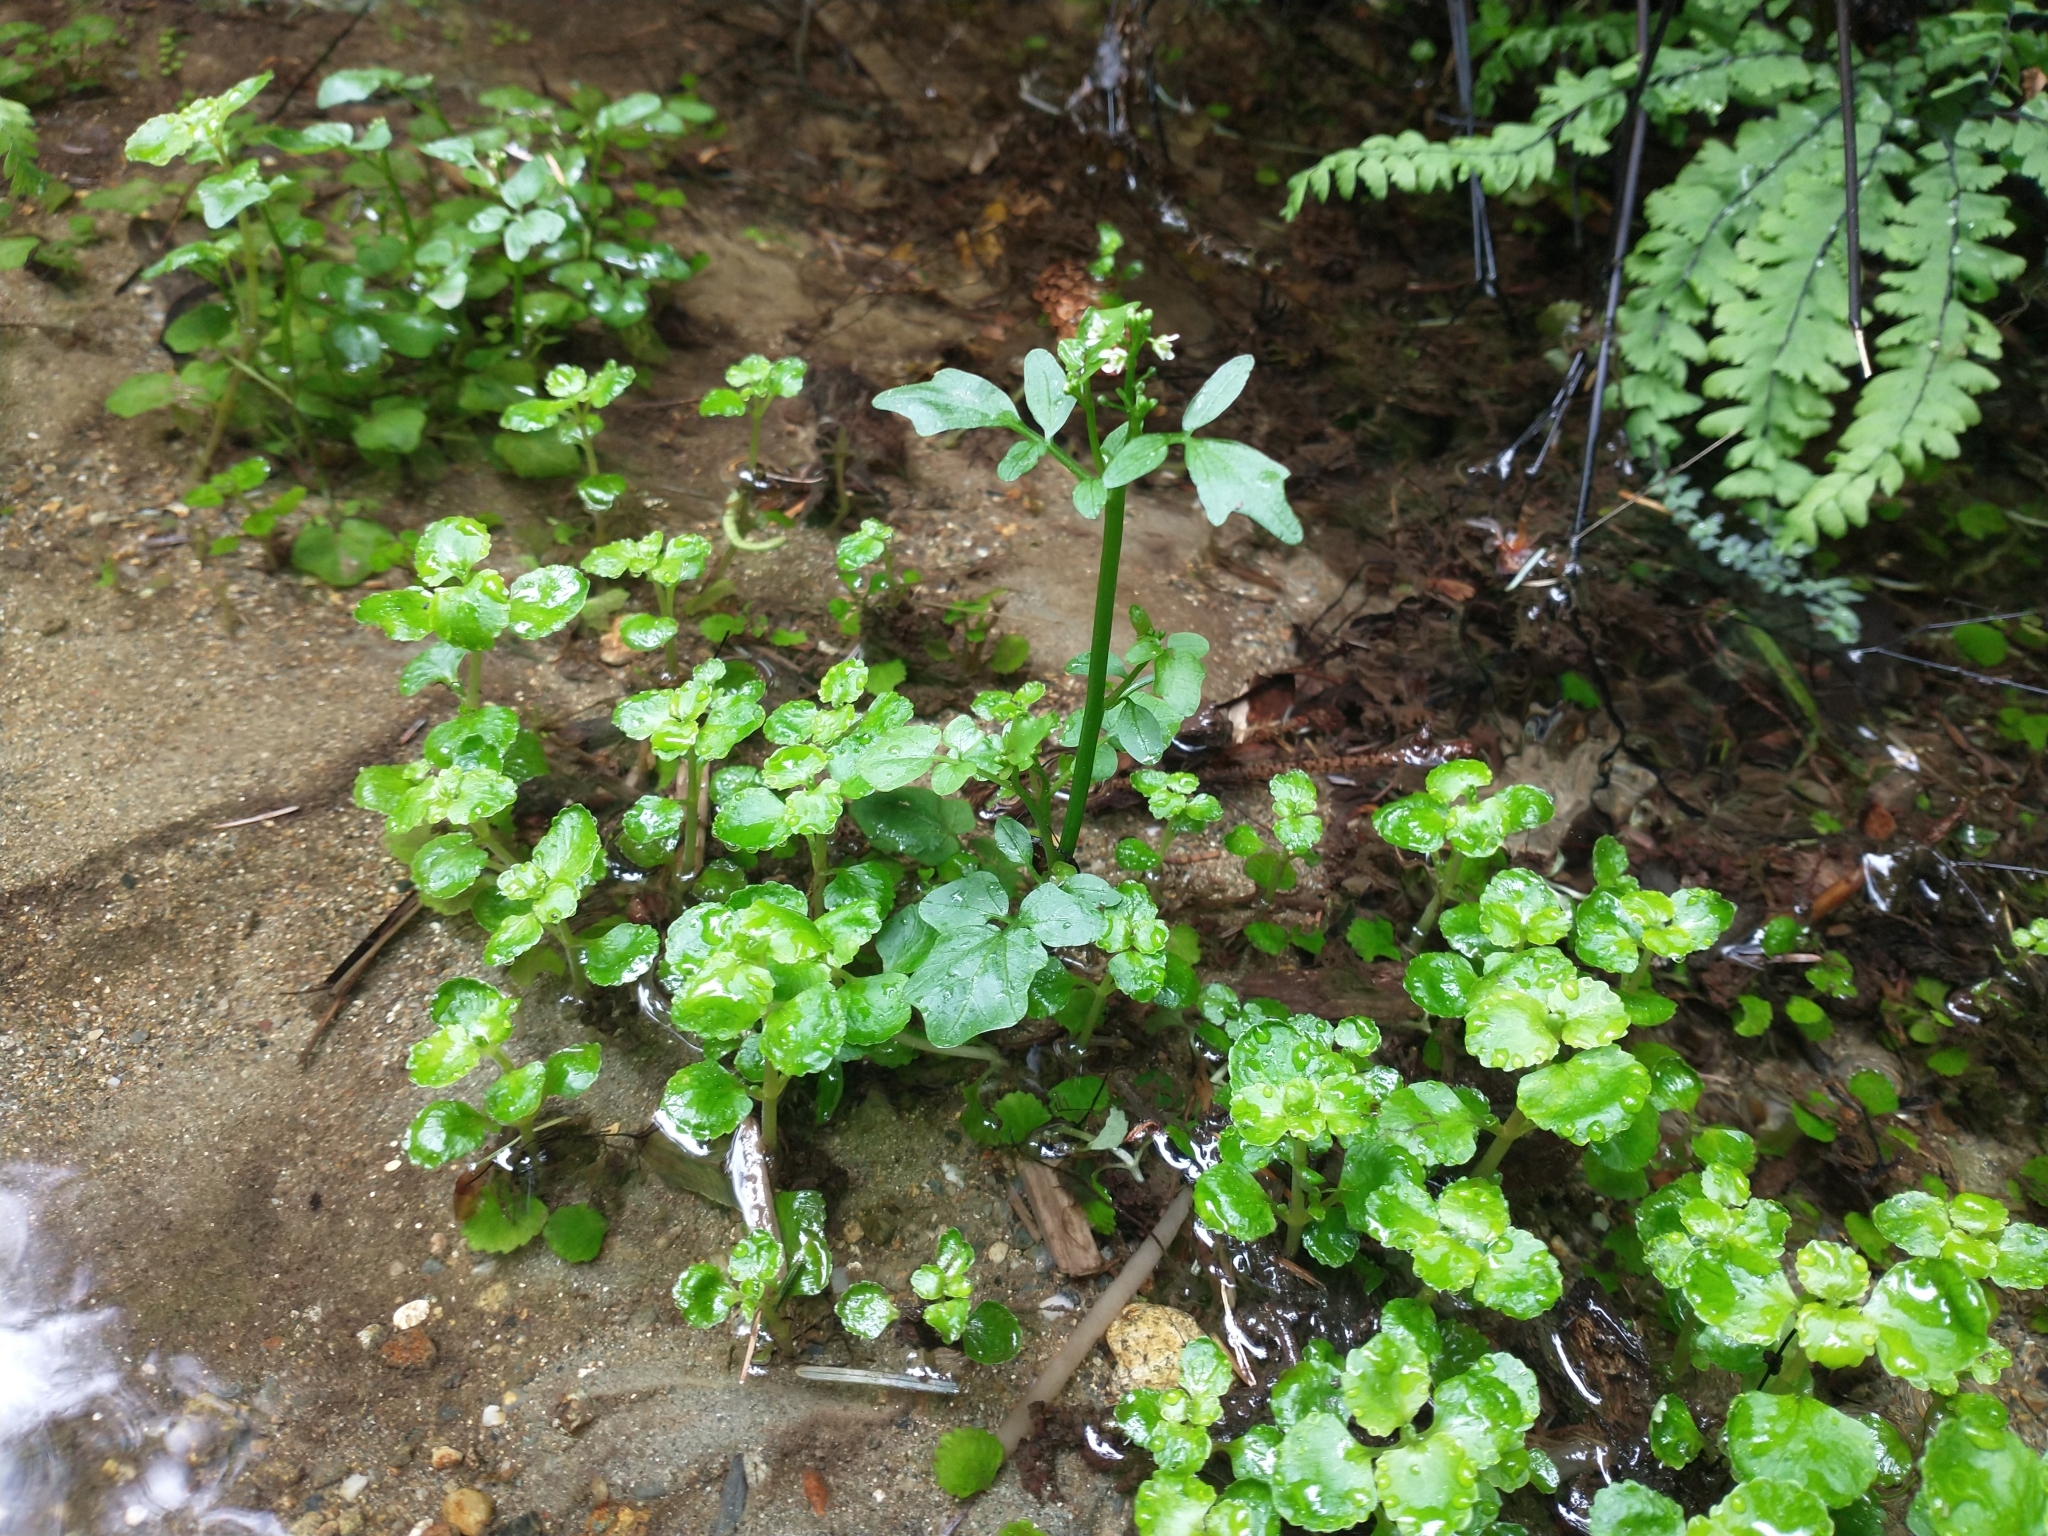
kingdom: Plantae
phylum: Tracheophyta
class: Magnoliopsida
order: Saxifragales
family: Saxifragaceae
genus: Chrysosplenium
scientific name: Chrysosplenium glechomifolium
